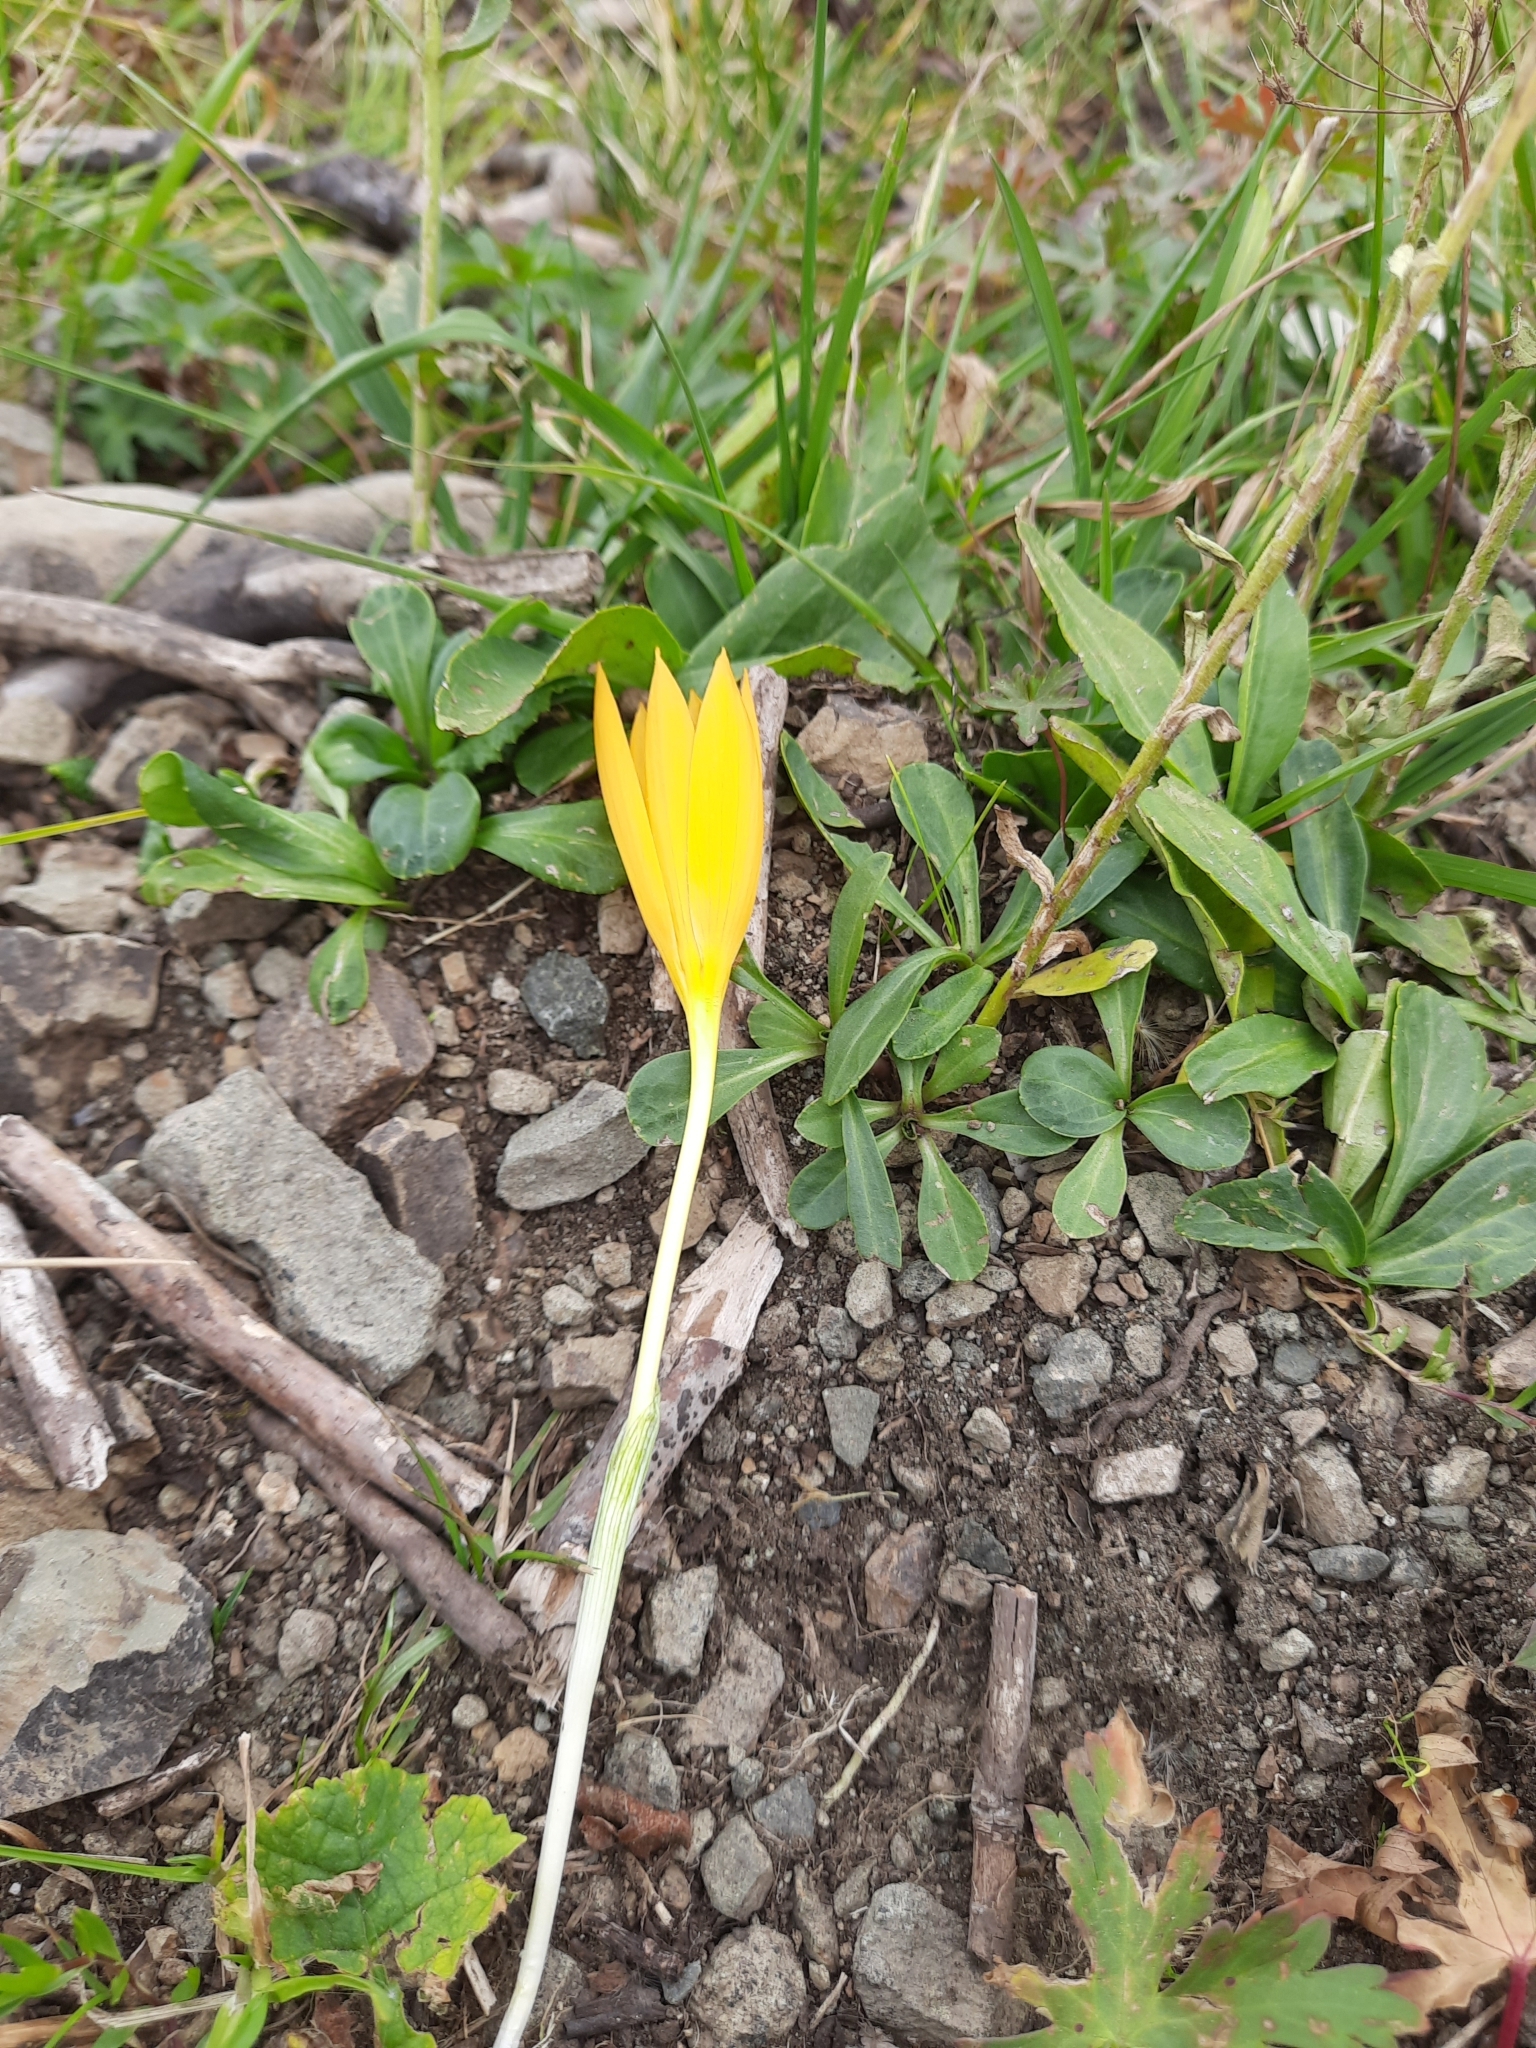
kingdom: Plantae
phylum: Tracheophyta
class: Liliopsida
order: Asparagales
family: Iridaceae
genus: Crocus
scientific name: Crocus scharojanii
